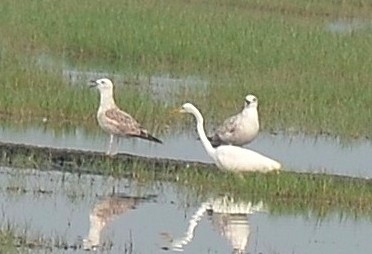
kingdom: Animalia
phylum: Chordata
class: Aves
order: Charadriiformes
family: Laridae
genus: Larus
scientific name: Larus fuscus
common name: Lesser black-backed gull
